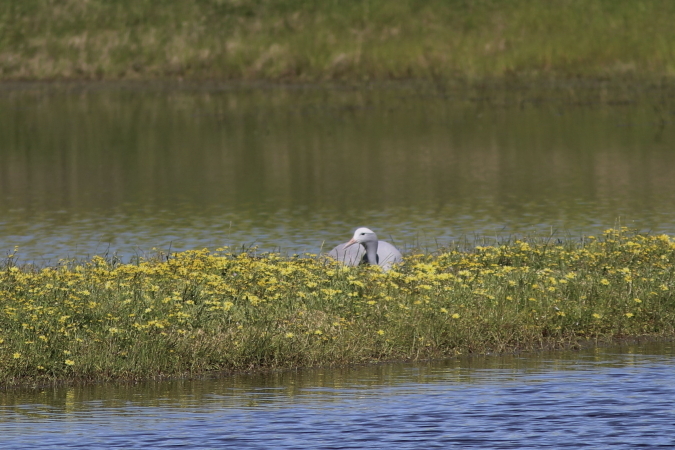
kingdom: Animalia
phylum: Chordata
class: Aves
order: Gruiformes
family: Gruidae
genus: Anthropoides
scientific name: Anthropoides paradiseus
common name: Blue crane
